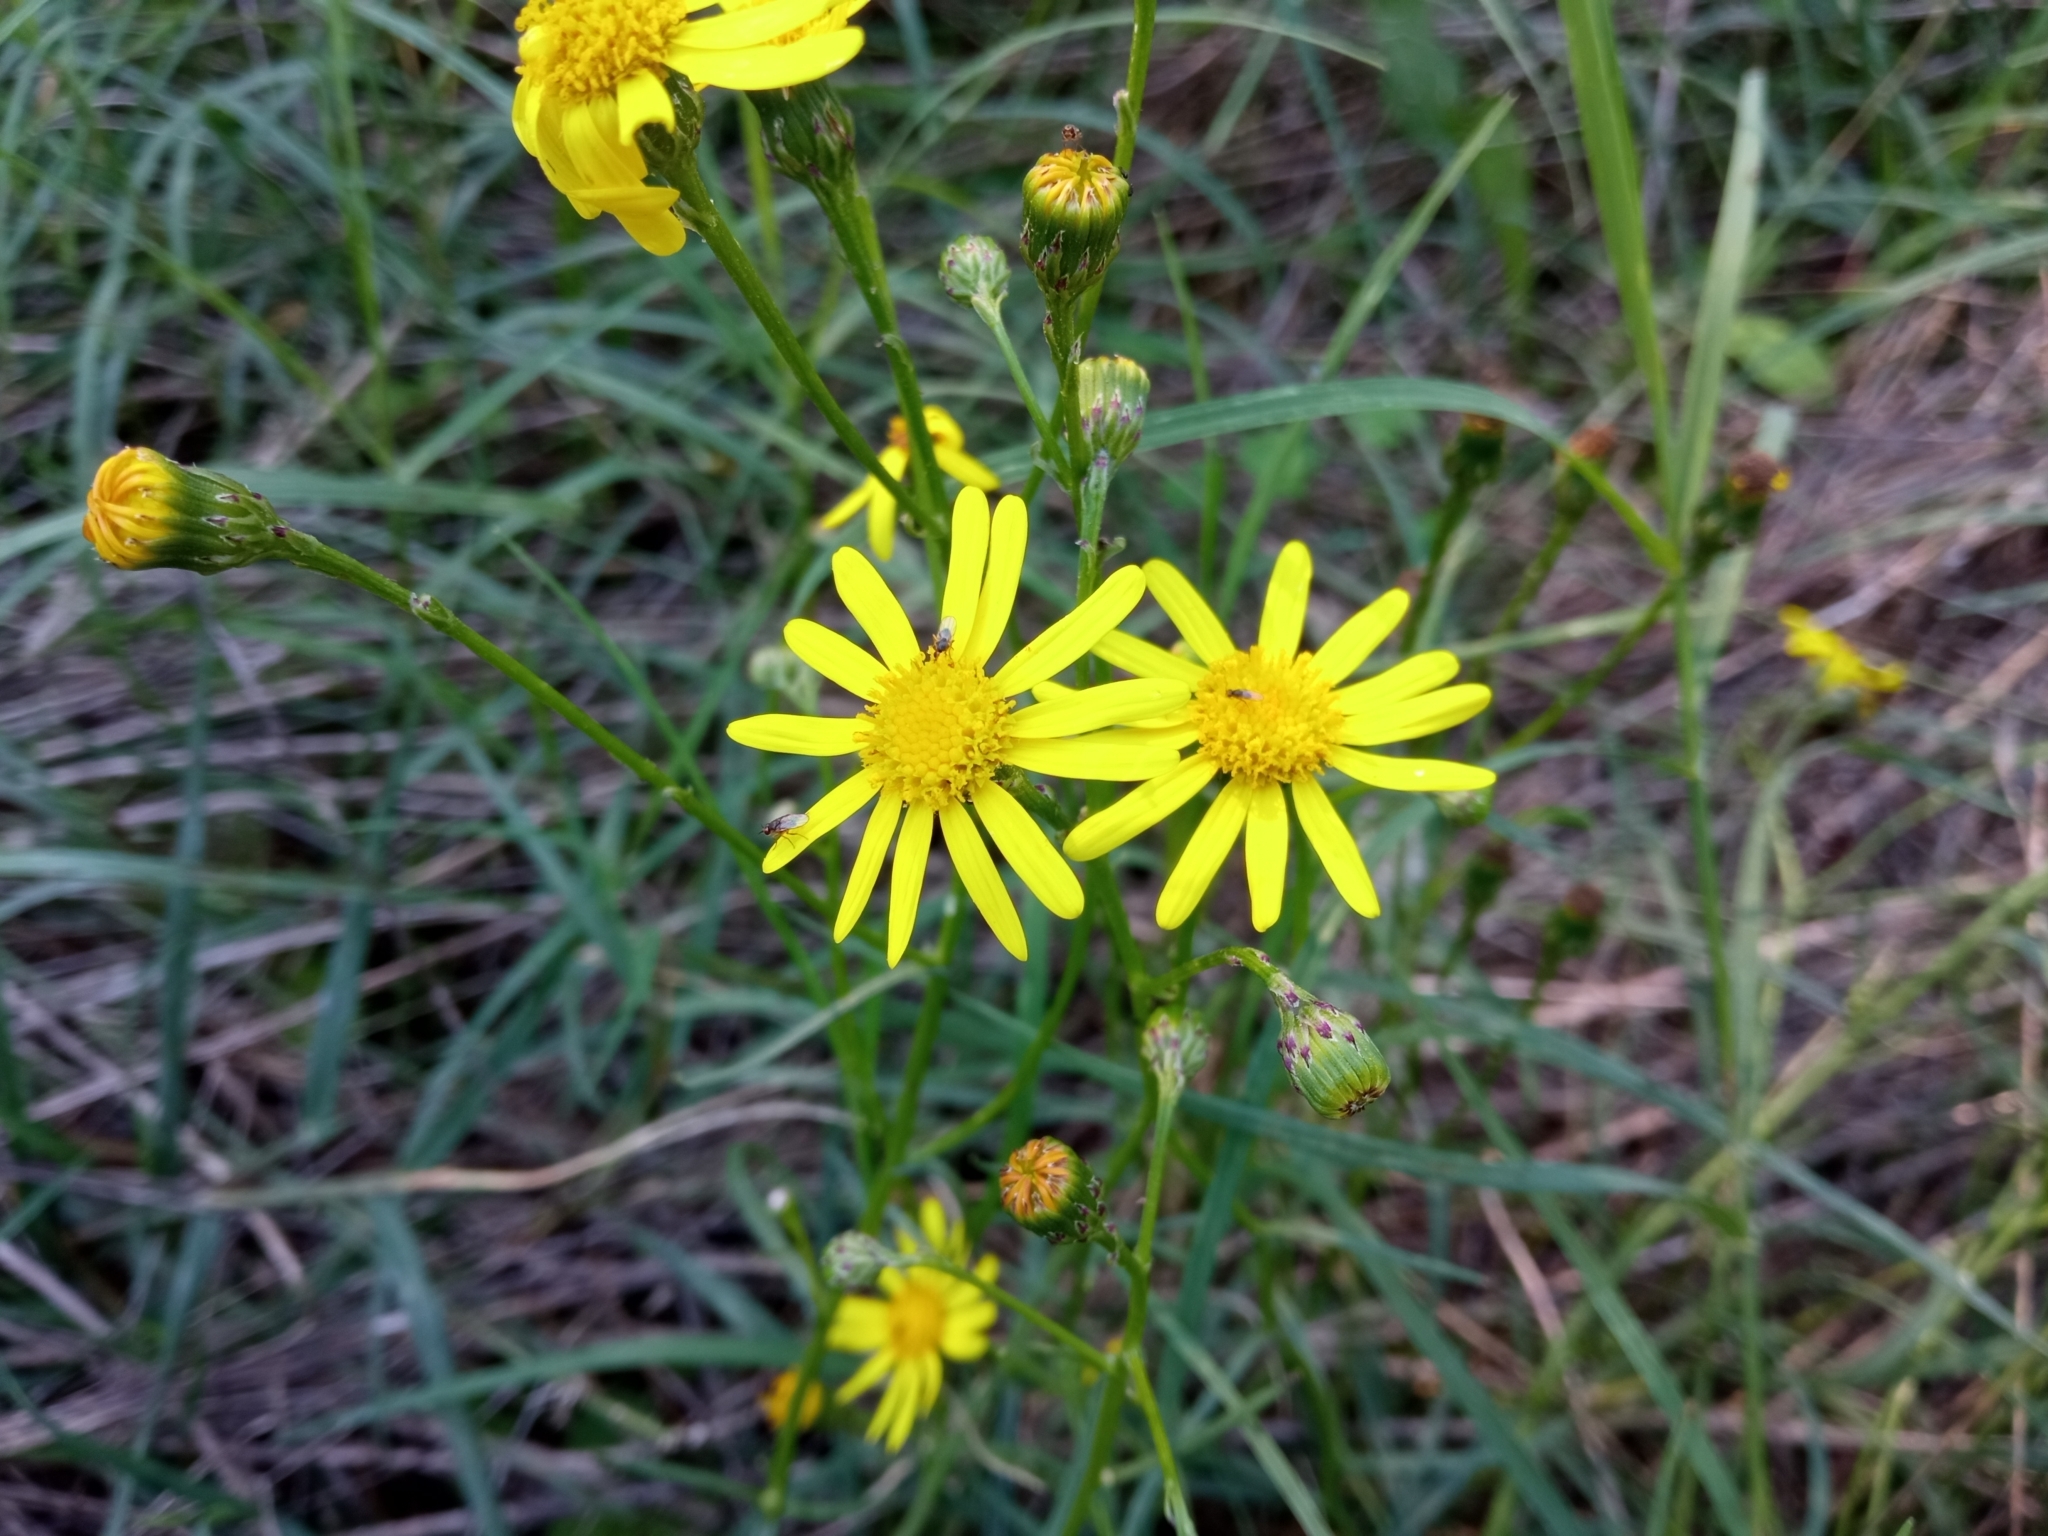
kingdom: Plantae
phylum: Tracheophyta
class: Magnoliopsida
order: Asterales
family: Asteraceae
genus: Senecio
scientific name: Senecio inaequidens
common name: Narrow-leaved ragwort
